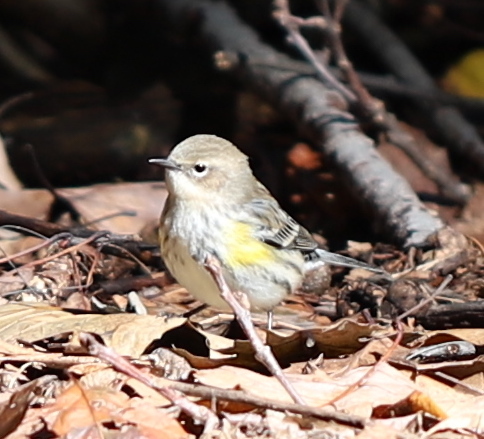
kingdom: Animalia
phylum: Chordata
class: Aves
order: Passeriformes
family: Parulidae
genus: Setophaga
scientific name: Setophaga coronata
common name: Myrtle warbler
